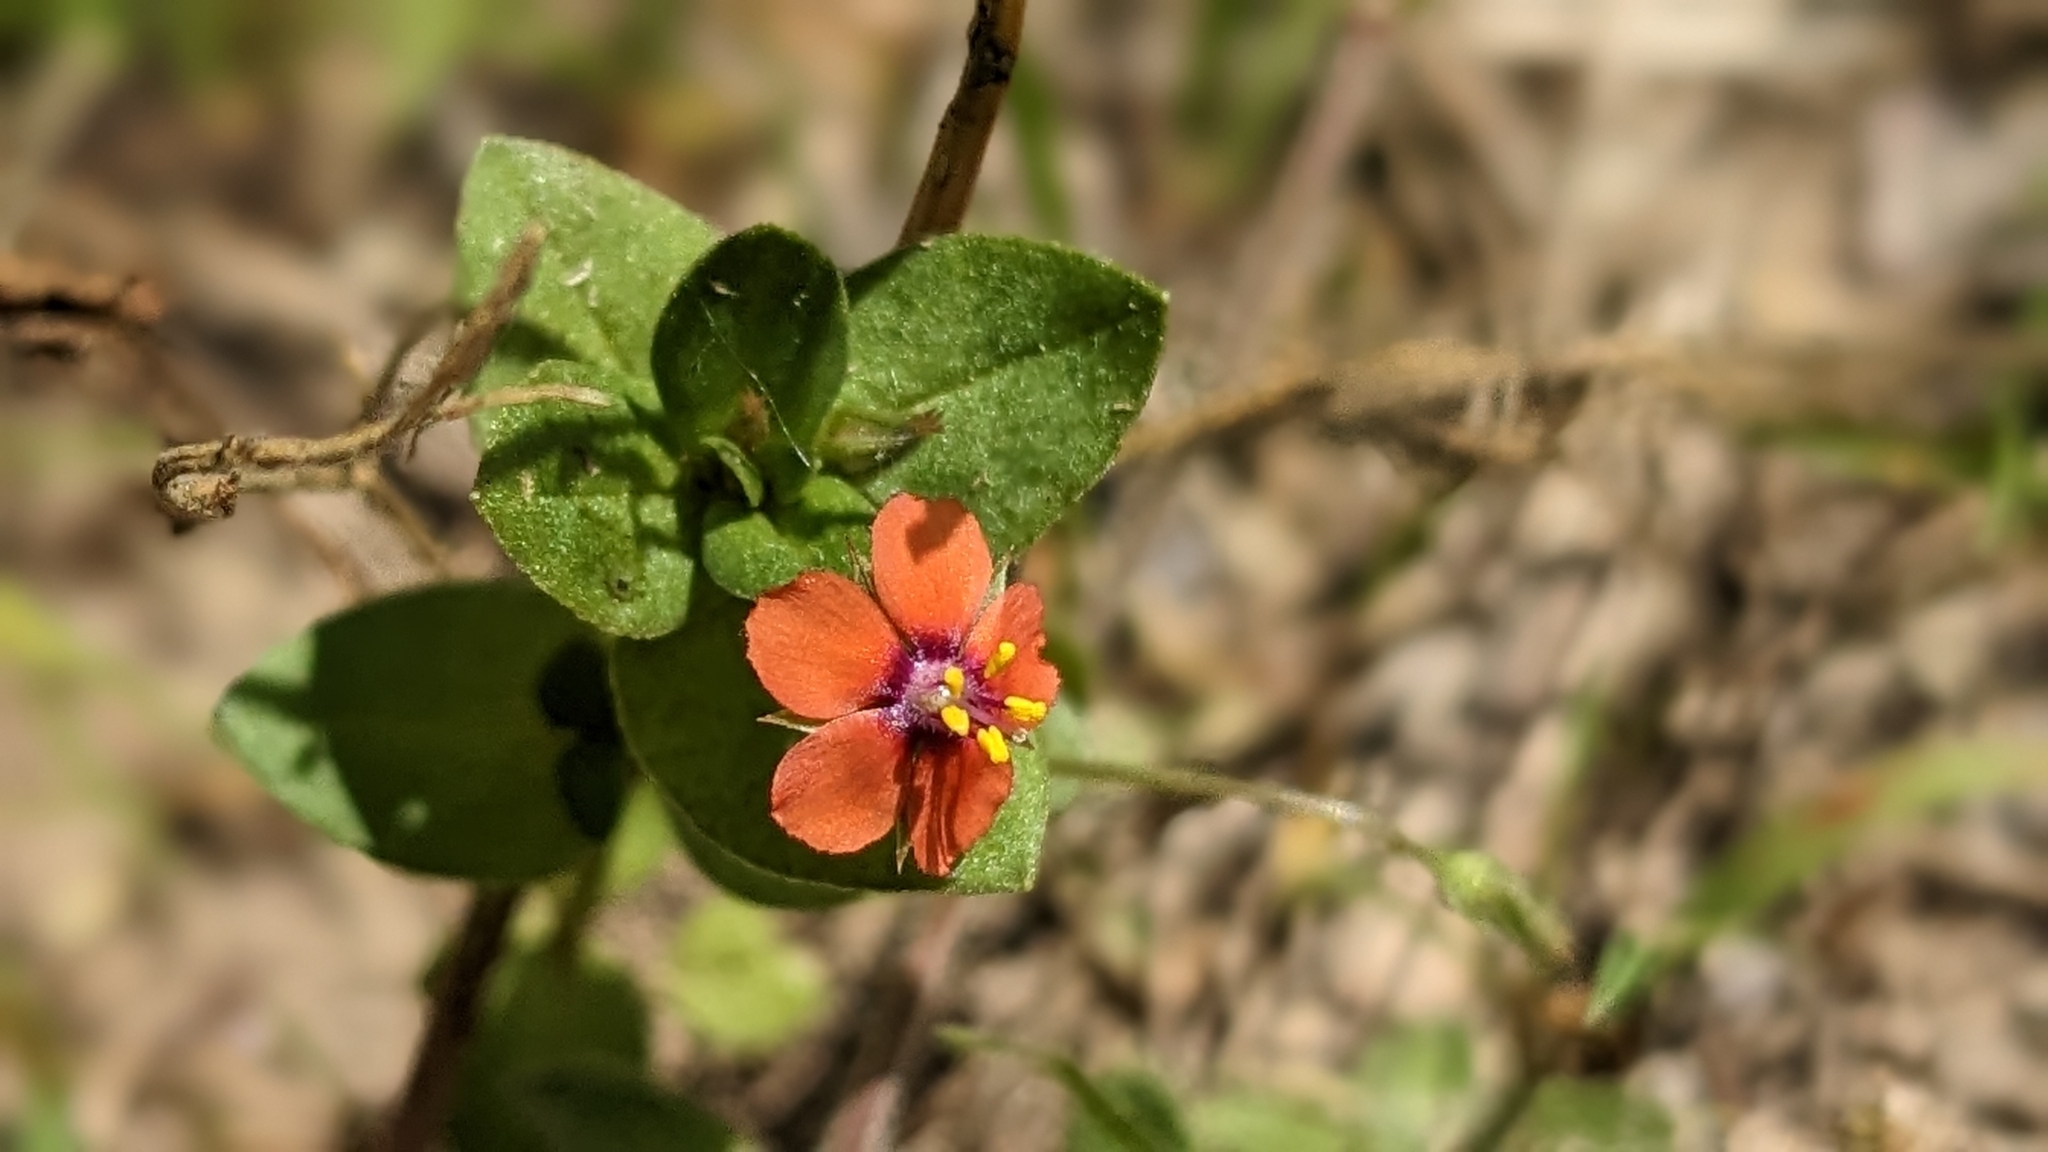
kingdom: Plantae
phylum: Tracheophyta
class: Magnoliopsida
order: Ericales
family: Primulaceae
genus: Lysimachia
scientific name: Lysimachia arvensis
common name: Scarlet pimpernel
